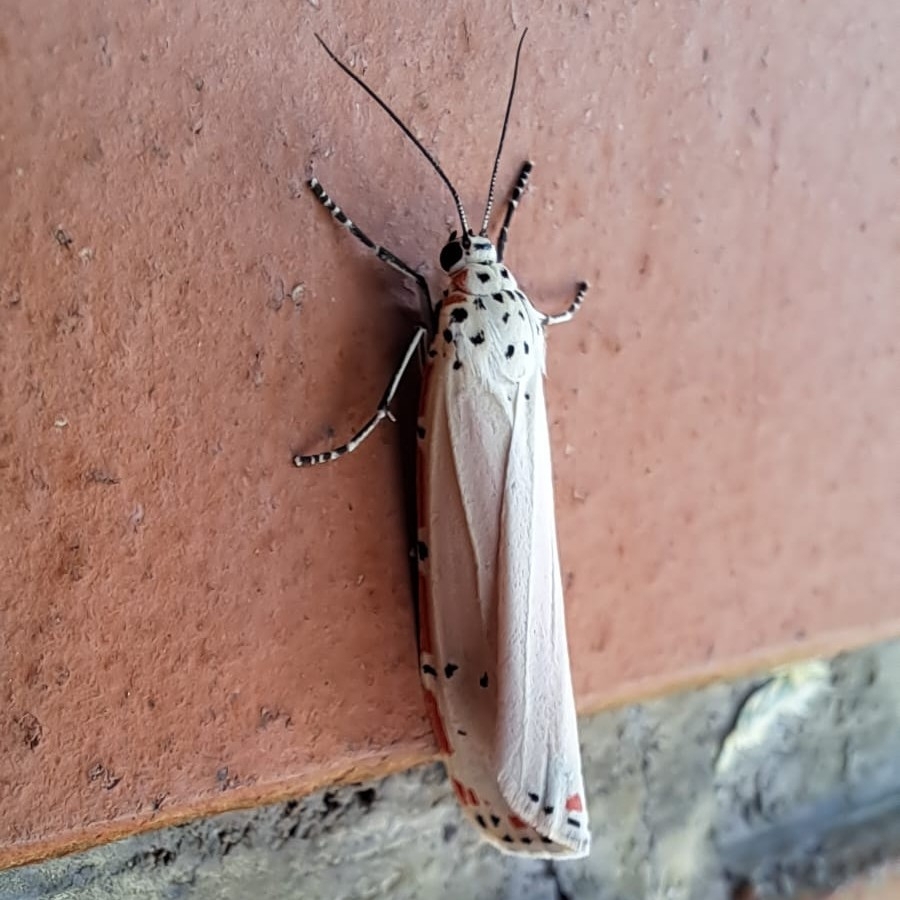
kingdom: Animalia
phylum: Arthropoda
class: Insecta
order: Lepidoptera
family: Erebidae
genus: Utetheisa
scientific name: Utetheisa ornatrix
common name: Beautiful utetheisa
